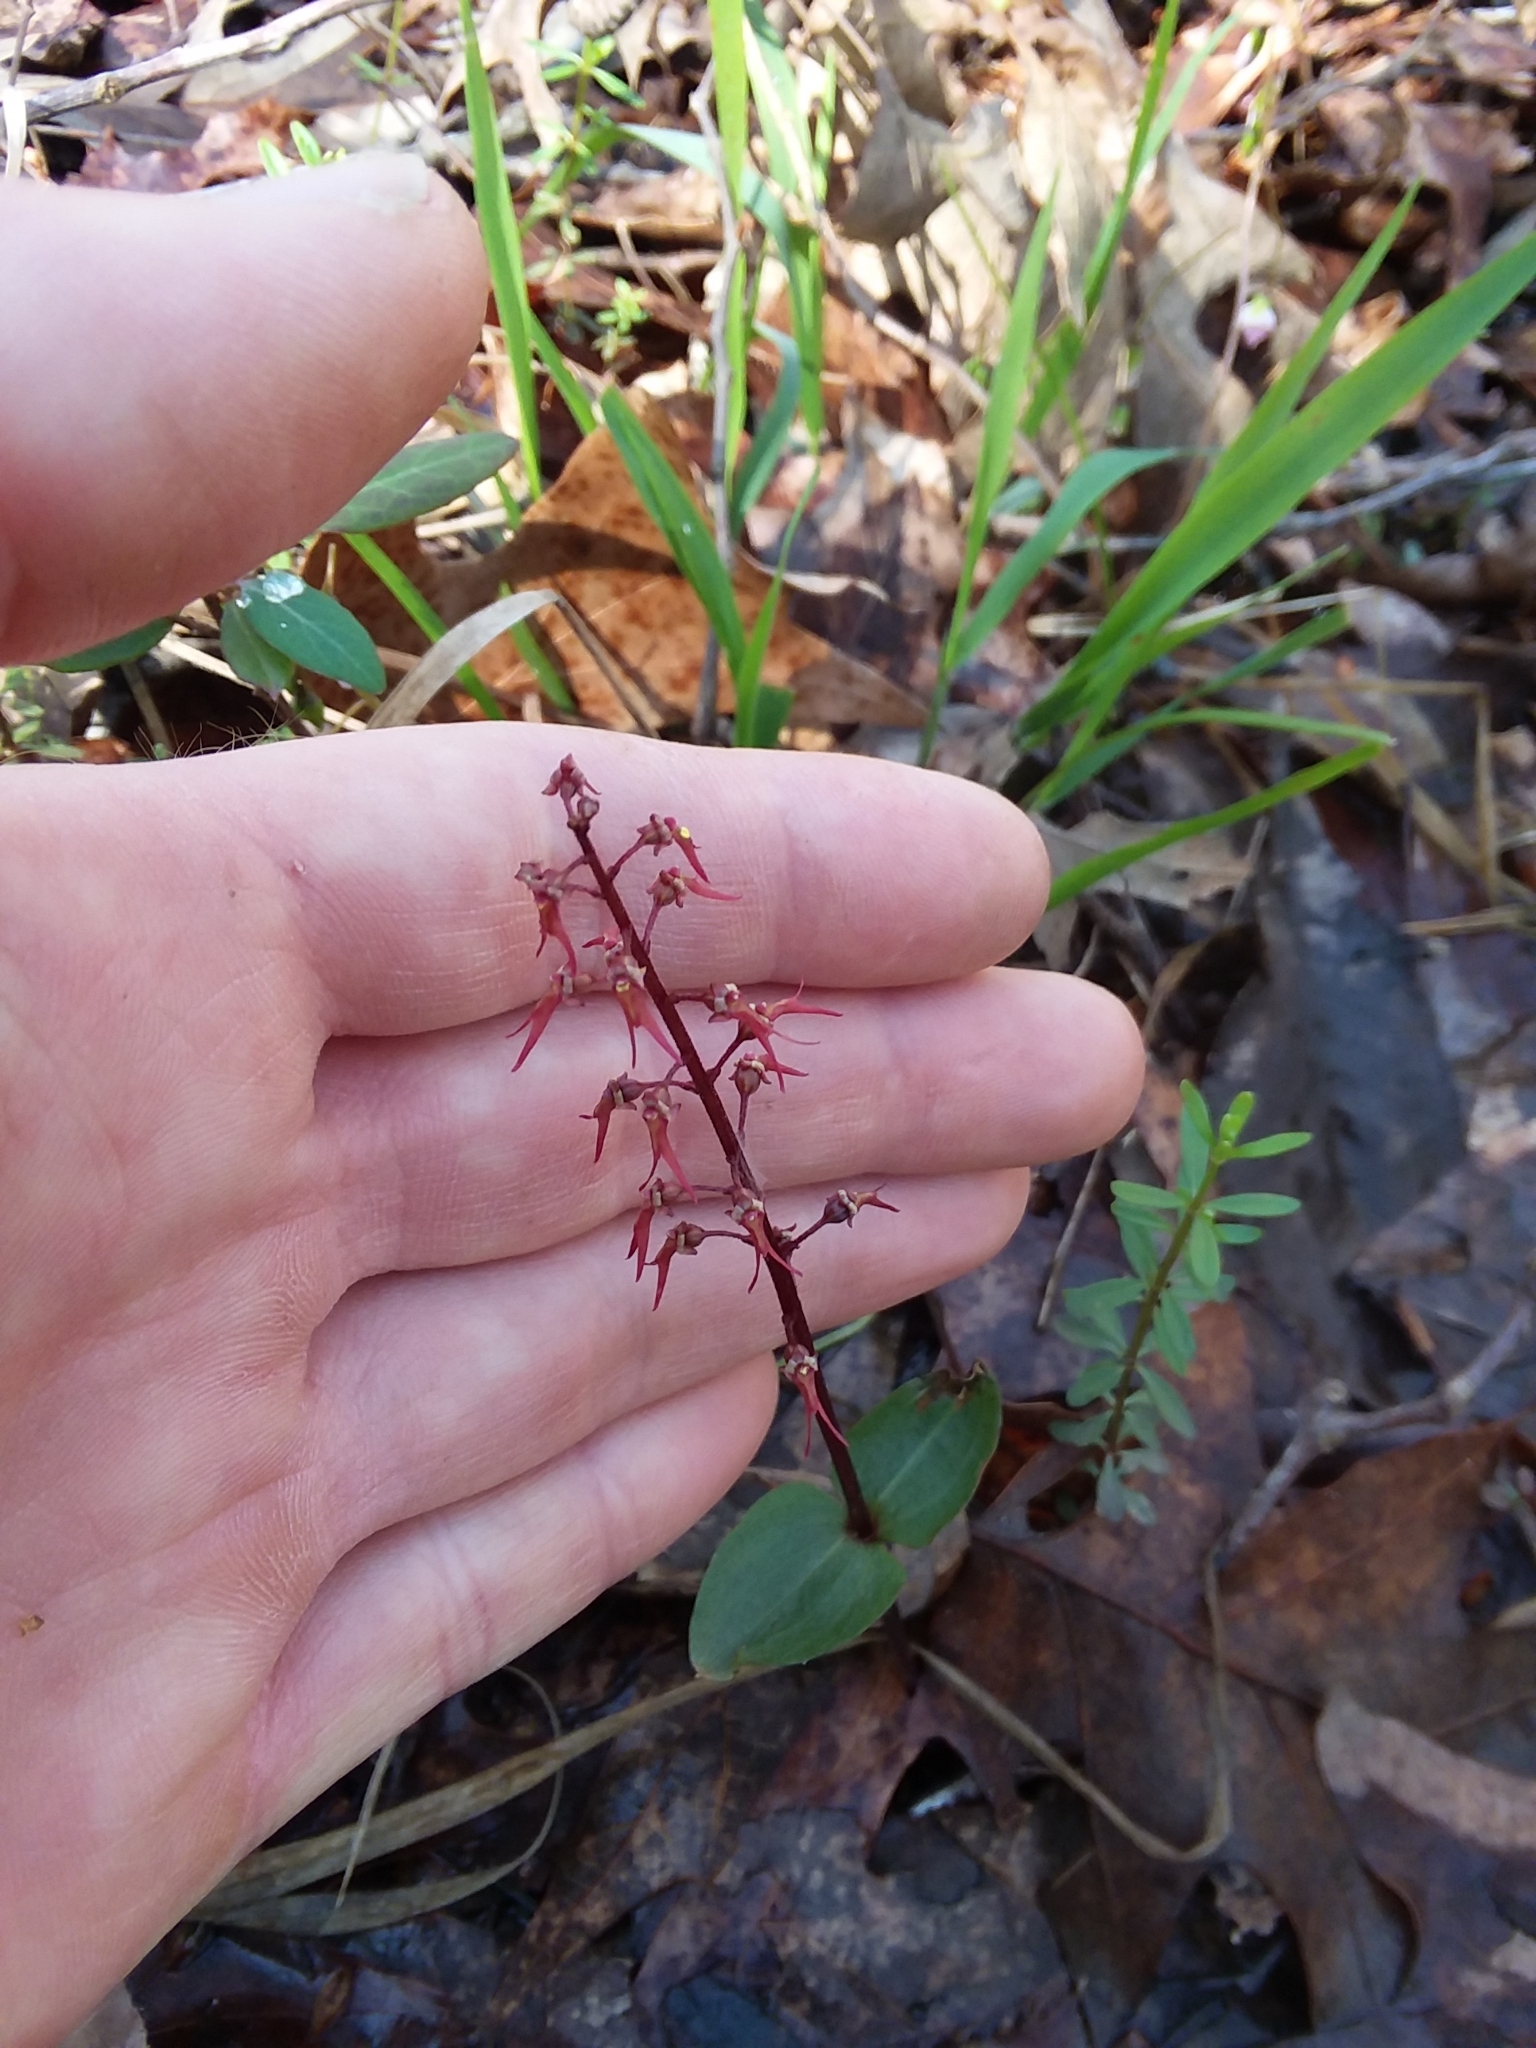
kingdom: Plantae
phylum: Tracheophyta
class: Liliopsida
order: Asparagales
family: Orchidaceae
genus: Neottia
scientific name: Neottia bifolia
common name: Southern twayblade
